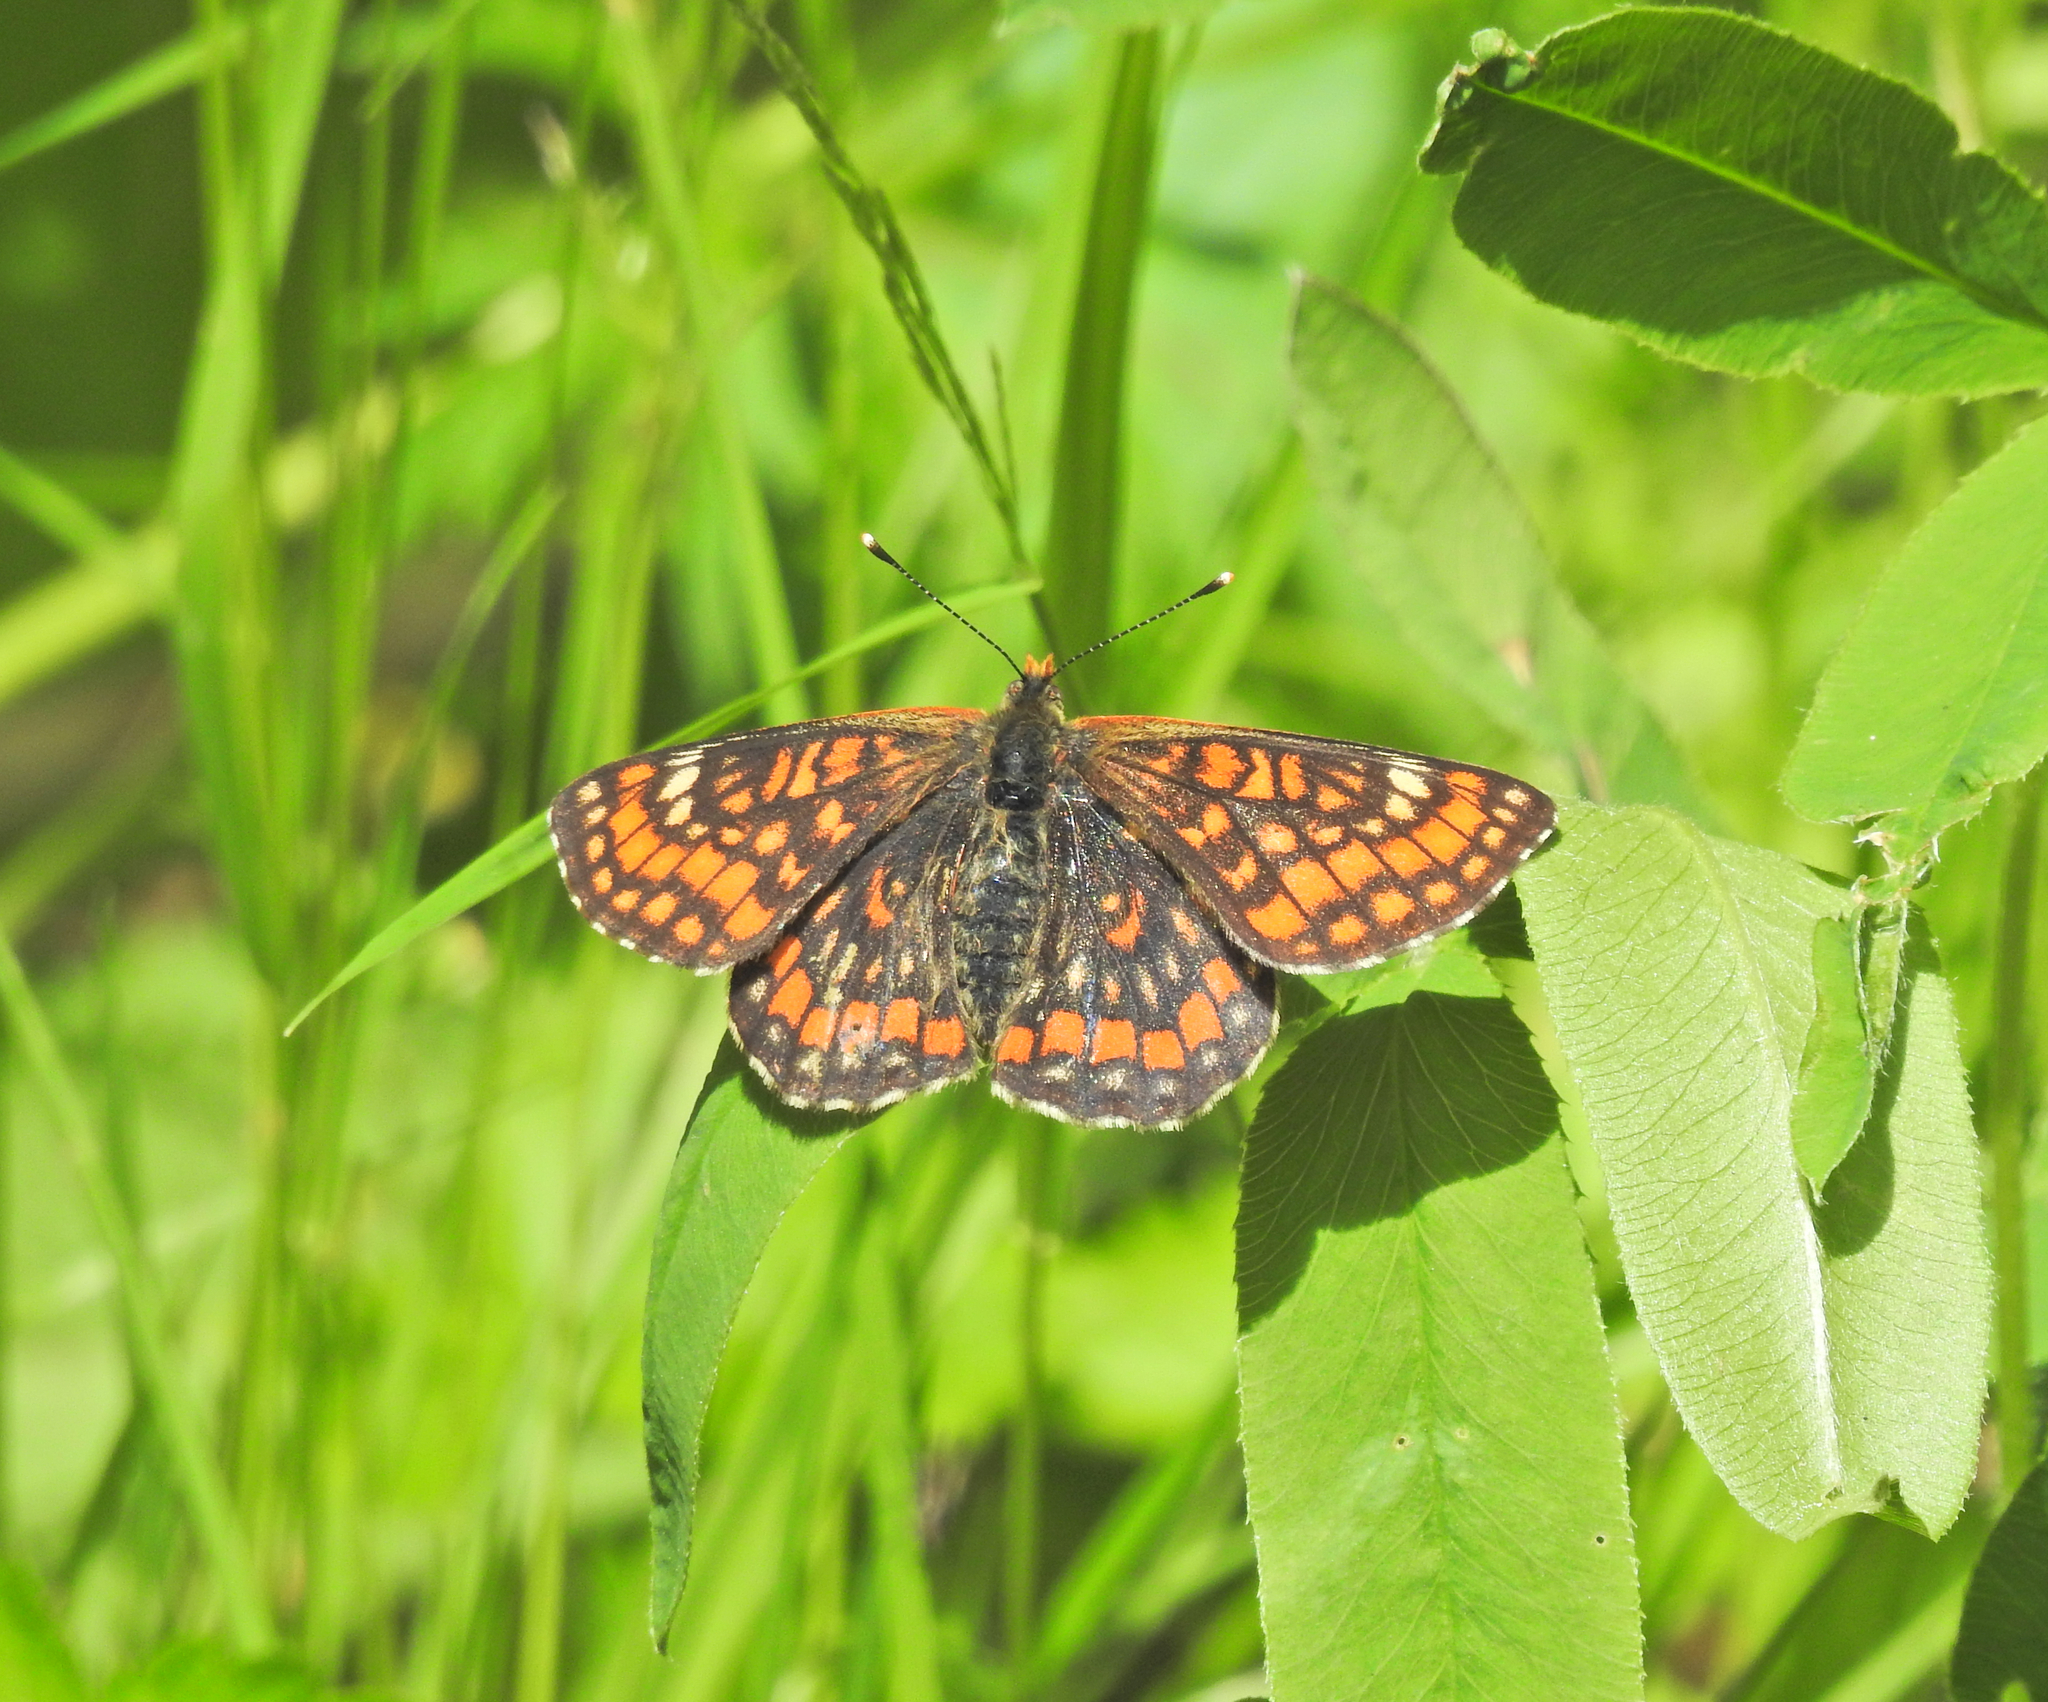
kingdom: Animalia
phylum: Arthropoda
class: Insecta
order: Lepidoptera
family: Nymphalidae
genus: Euphydryas
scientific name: Euphydryas maturna
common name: Scarce fritillary
